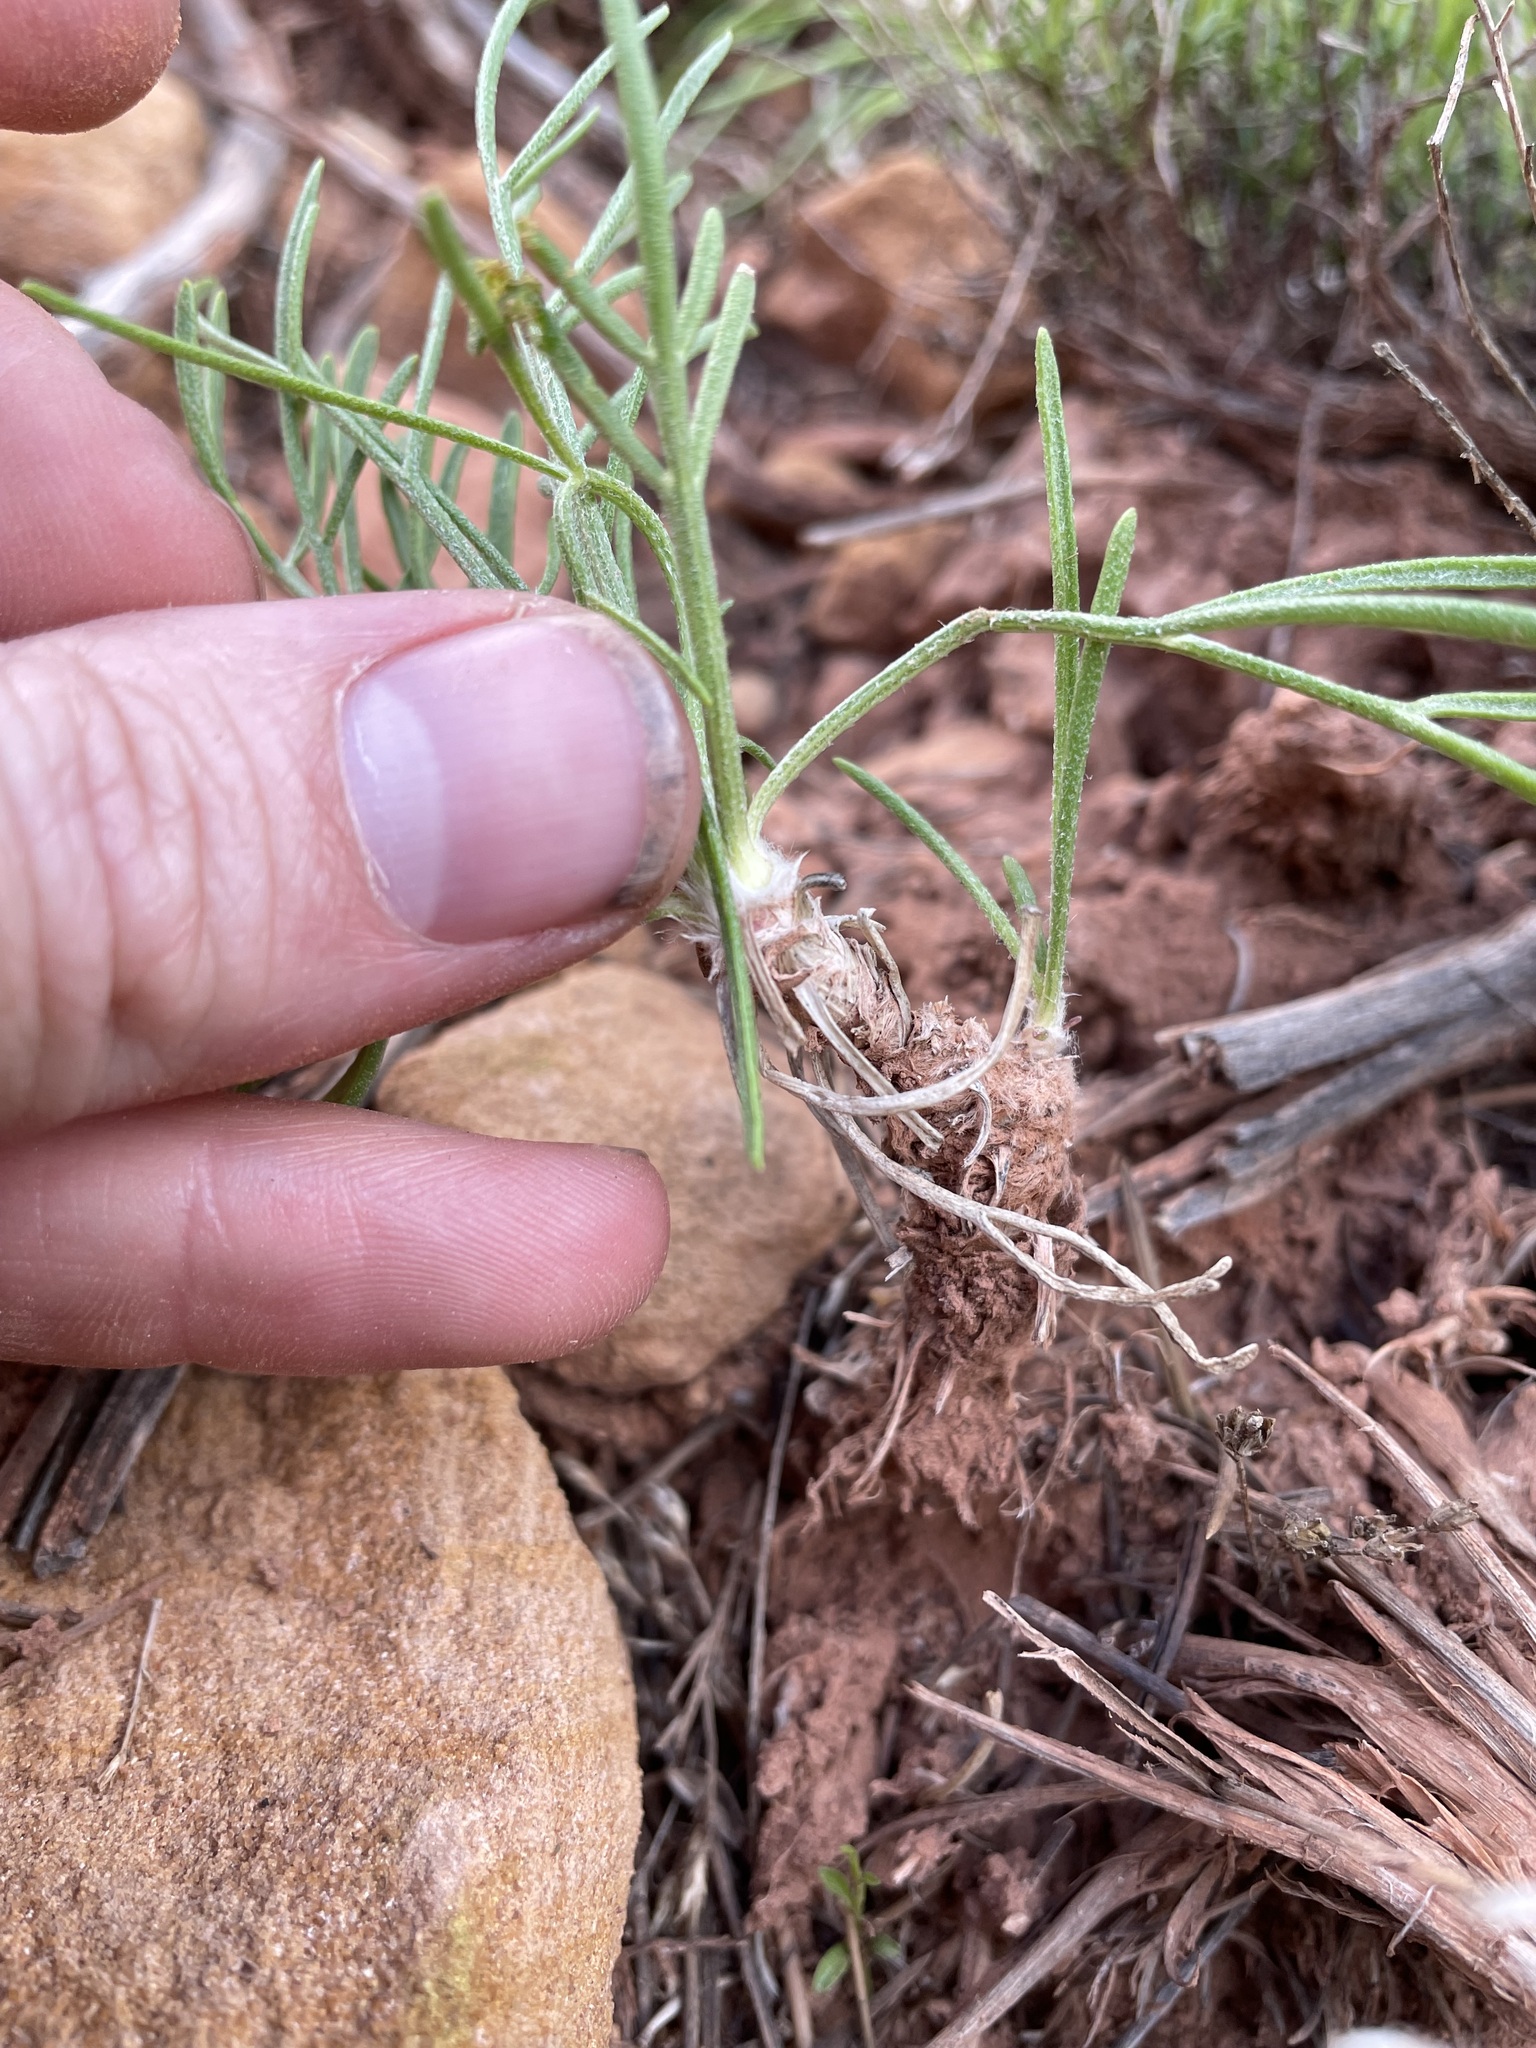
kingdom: Plantae
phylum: Tracheophyta
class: Magnoliopsida
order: Asterales
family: Asteraceae
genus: Hymenoxys
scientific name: Hymenoxys richardsonii
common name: Pingue rubberweed
